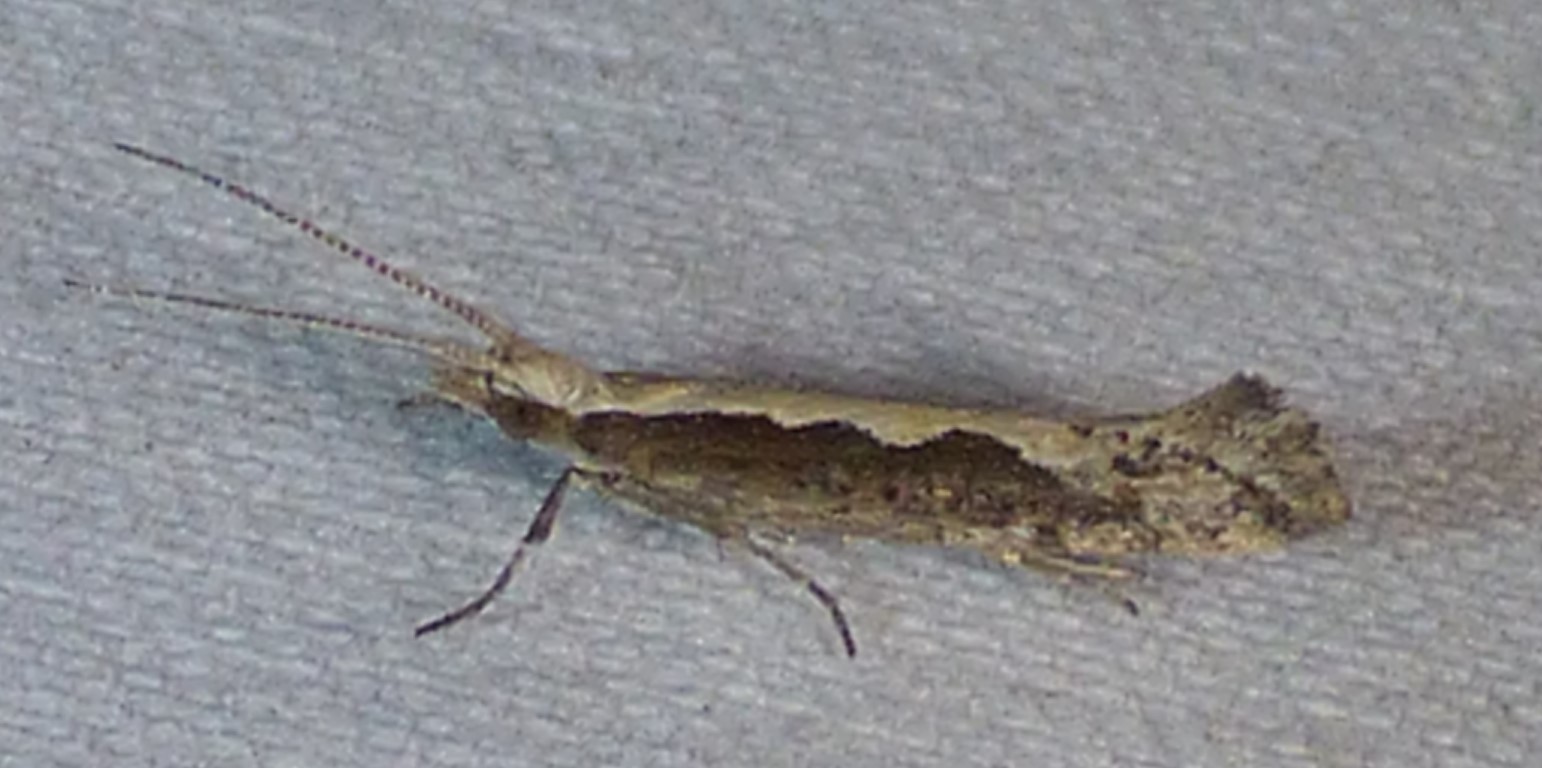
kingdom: Animalia
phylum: Arthropoda
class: Insecta
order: Lepidoptera
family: Plutellidae
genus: Plutella
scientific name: Plutella xylostella
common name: Diamond-back moth
